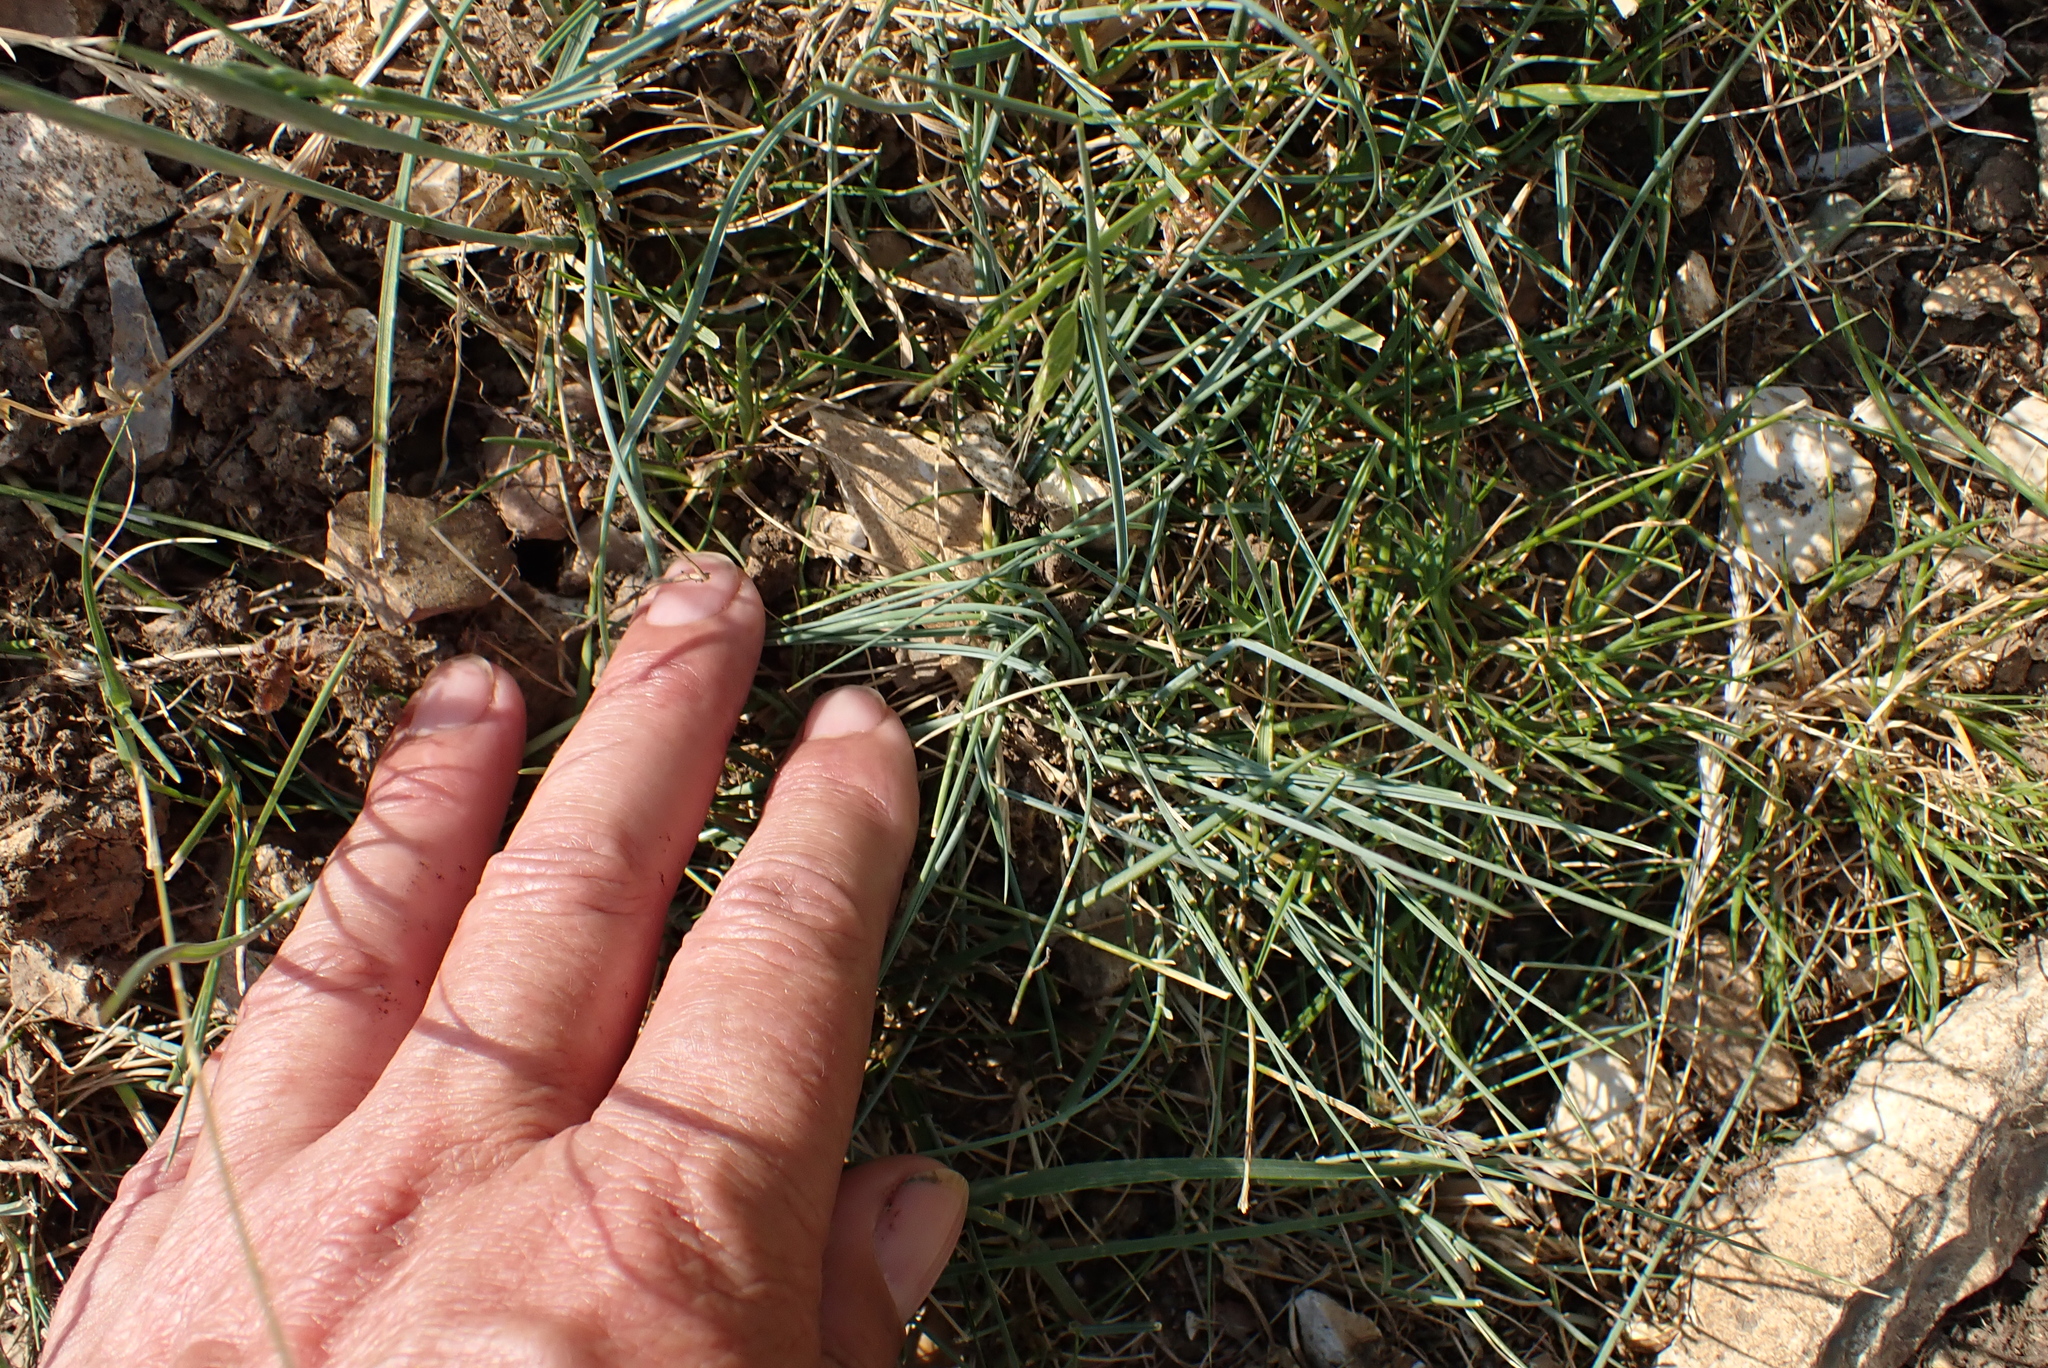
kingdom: Plantae
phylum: Tracheophyta
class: Liliopsida
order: Poales
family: Poaceae
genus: Festuca
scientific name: Festuca rubra
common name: Red fescue
